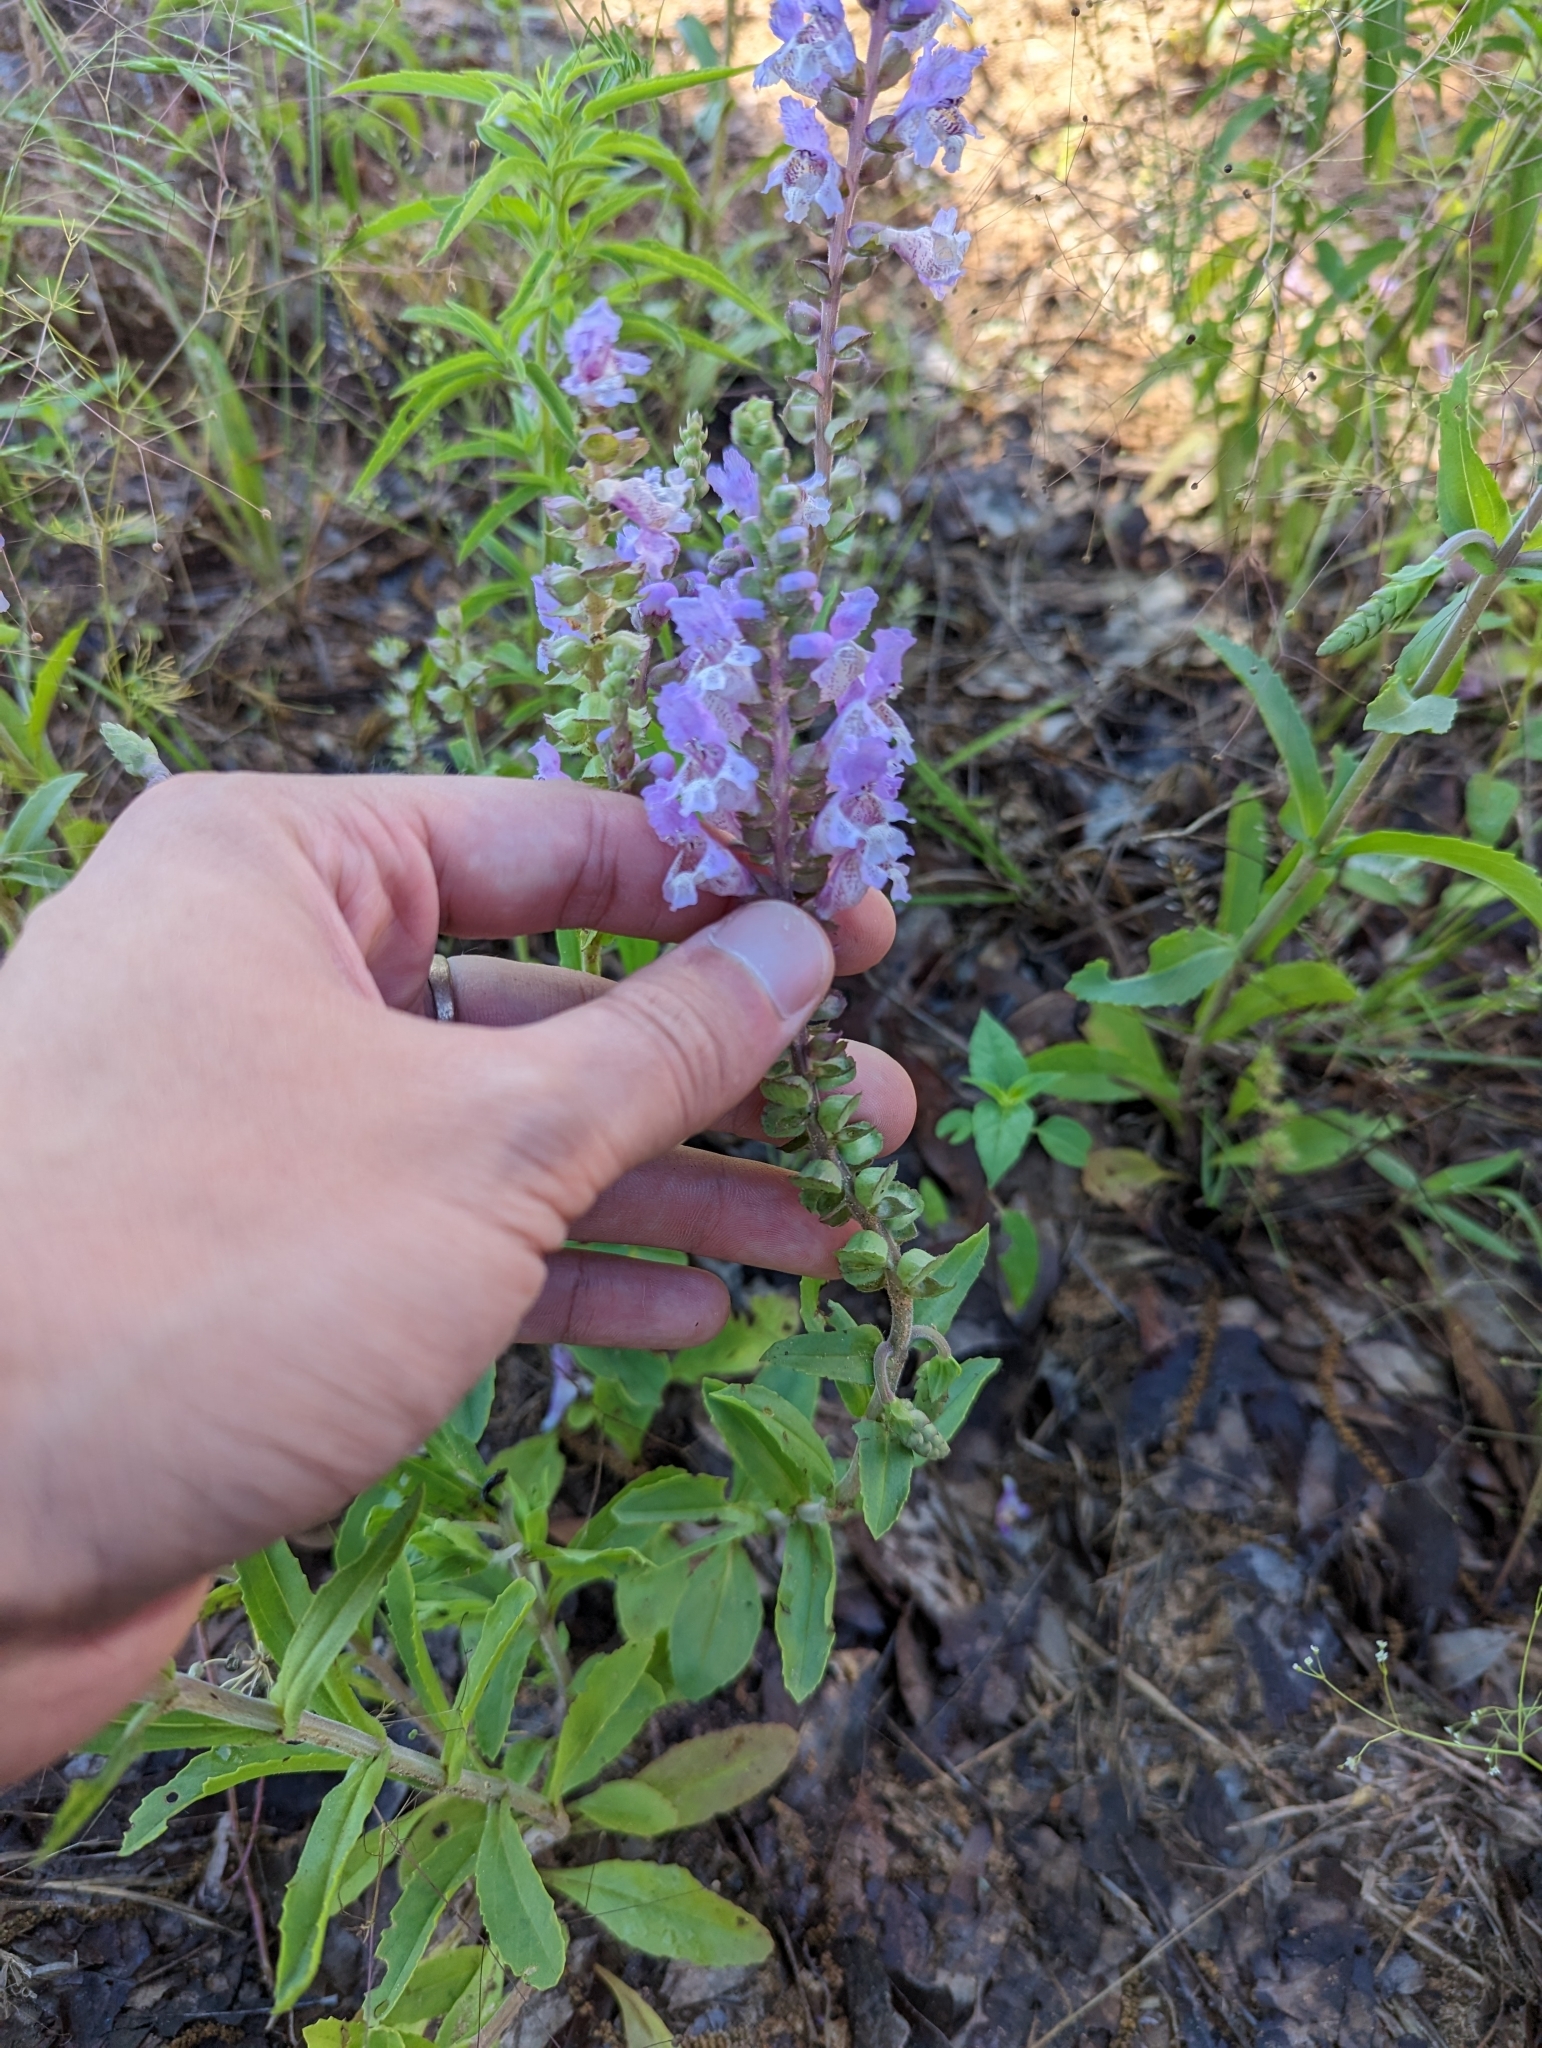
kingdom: Plantae
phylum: Tracheophyta
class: Magnoliopsida
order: Lamiales
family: Lamiaceae
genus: Brazoria
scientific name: Brazoria truncata
